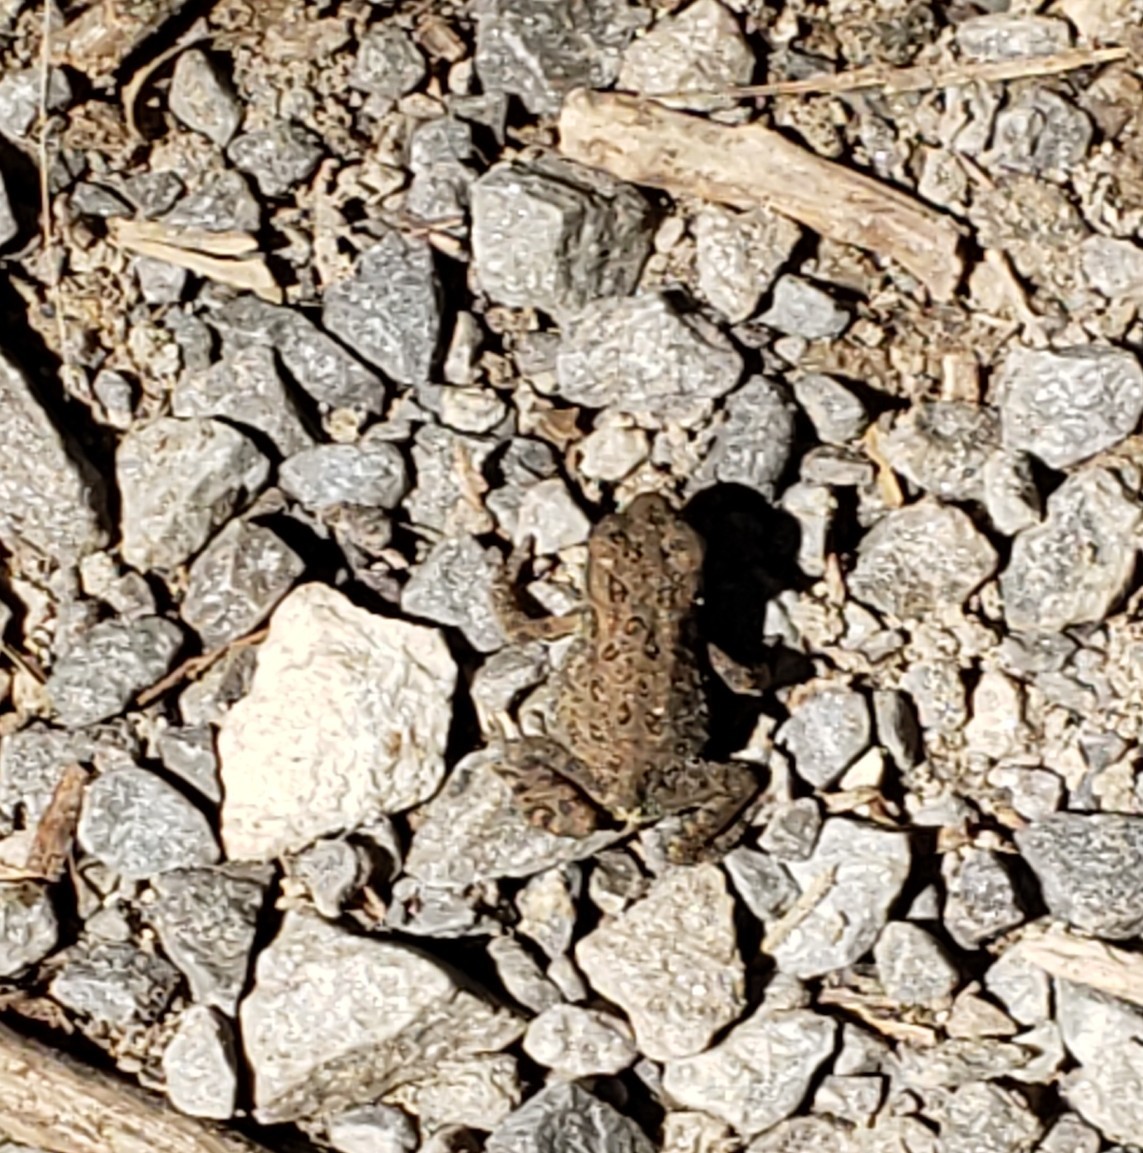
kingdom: Animalia
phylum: Chordata
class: Amphibia
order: Anura
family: Bufonidae
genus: Anaxyrus
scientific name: Anaxyrus americanus
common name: American toad
